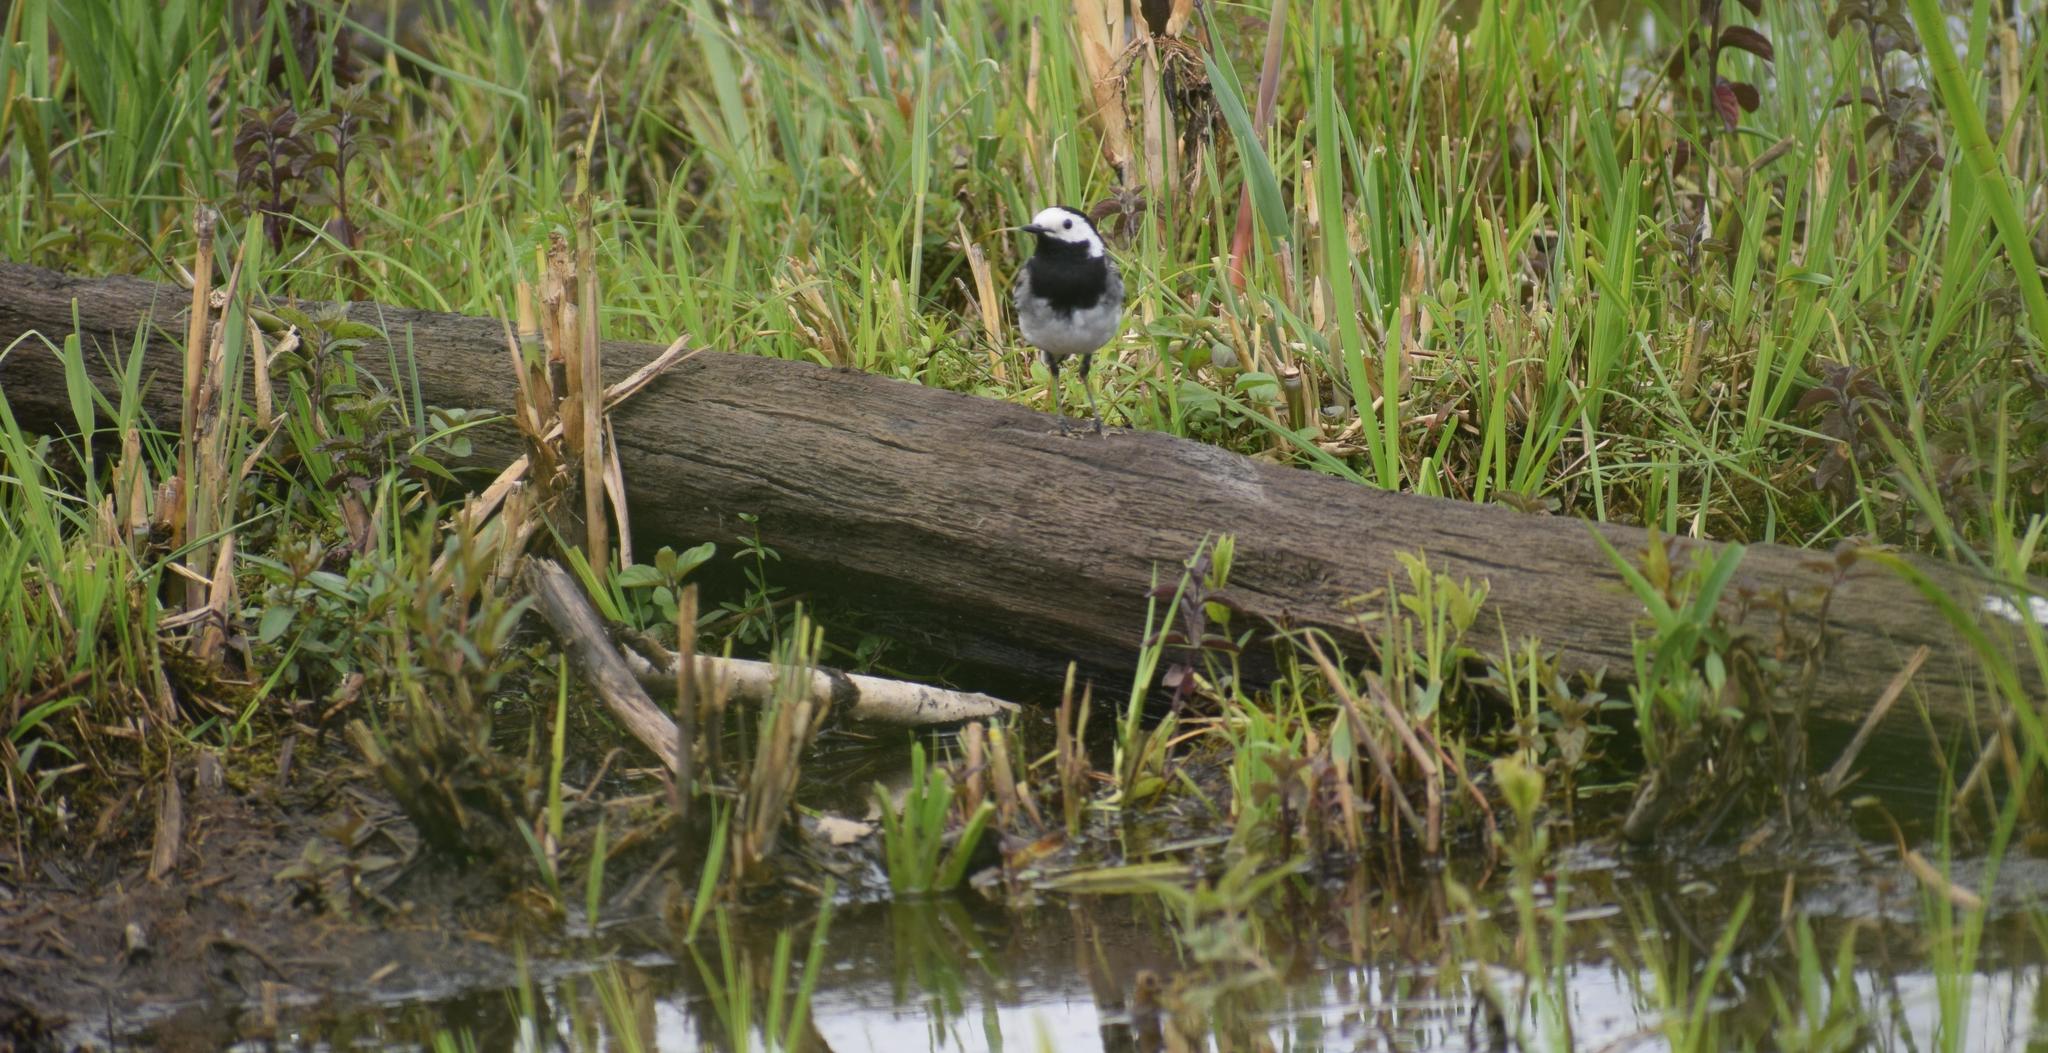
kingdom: Animalia
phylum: Chordata
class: Aves
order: Passeriformes
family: Motacillidae
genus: Motacilla
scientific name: Motacilla alba
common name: White wagtail
